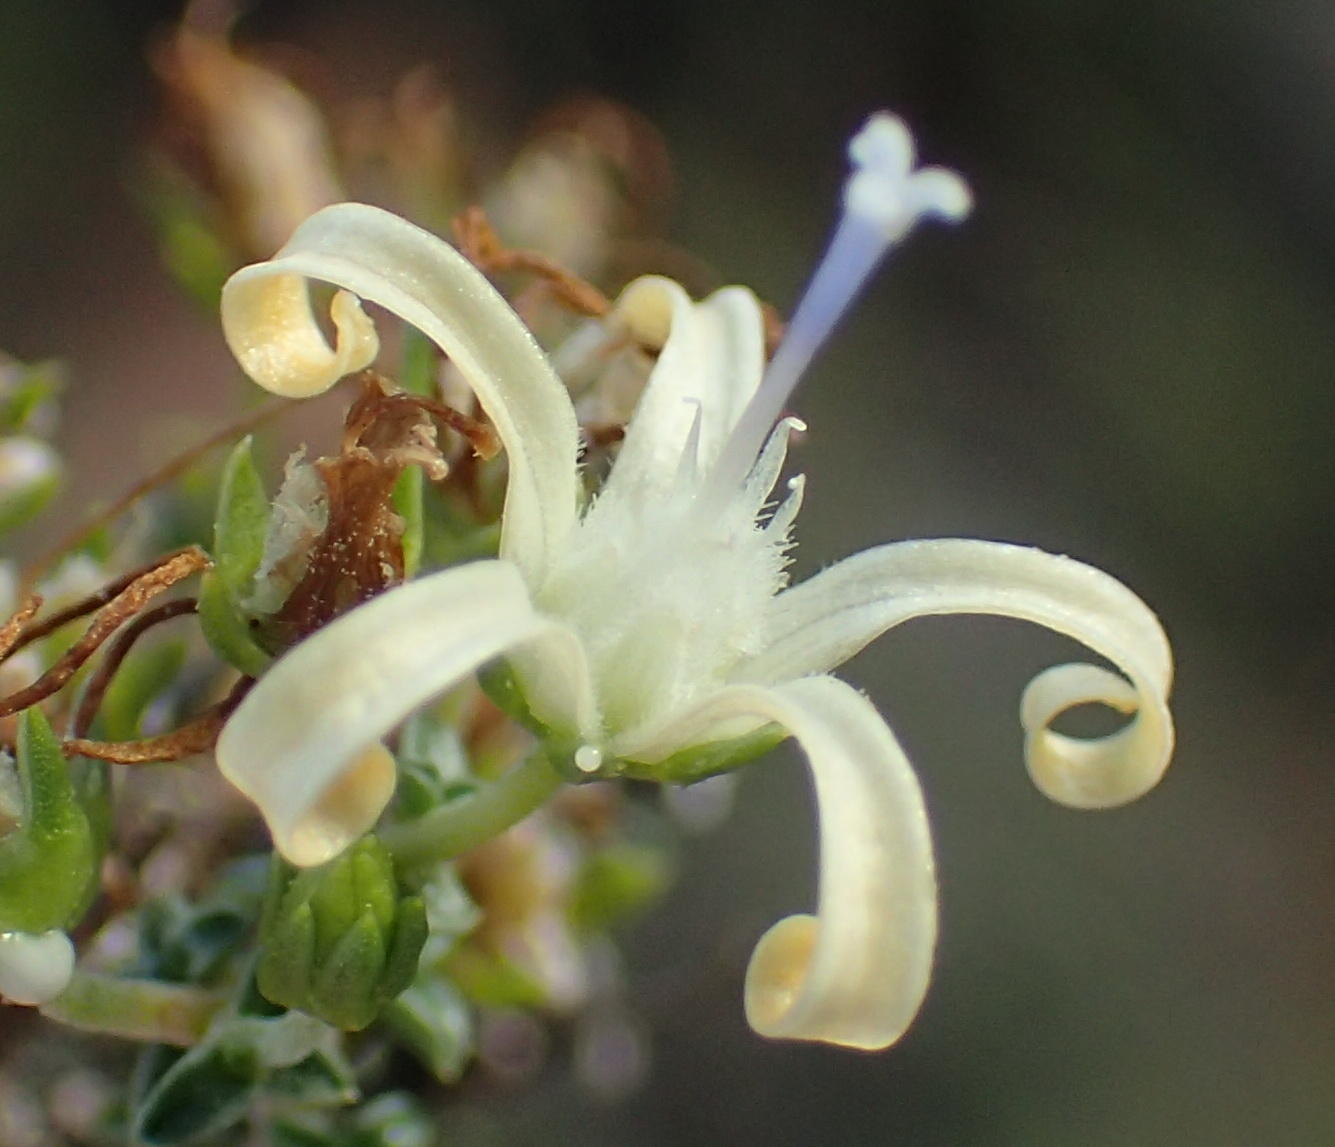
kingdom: Plantae
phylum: Tracheophyta
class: Magnoliopsida
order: Asterales
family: Campanulaceae
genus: Wahlenbergia
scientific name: Wahlenbergia nodosa
